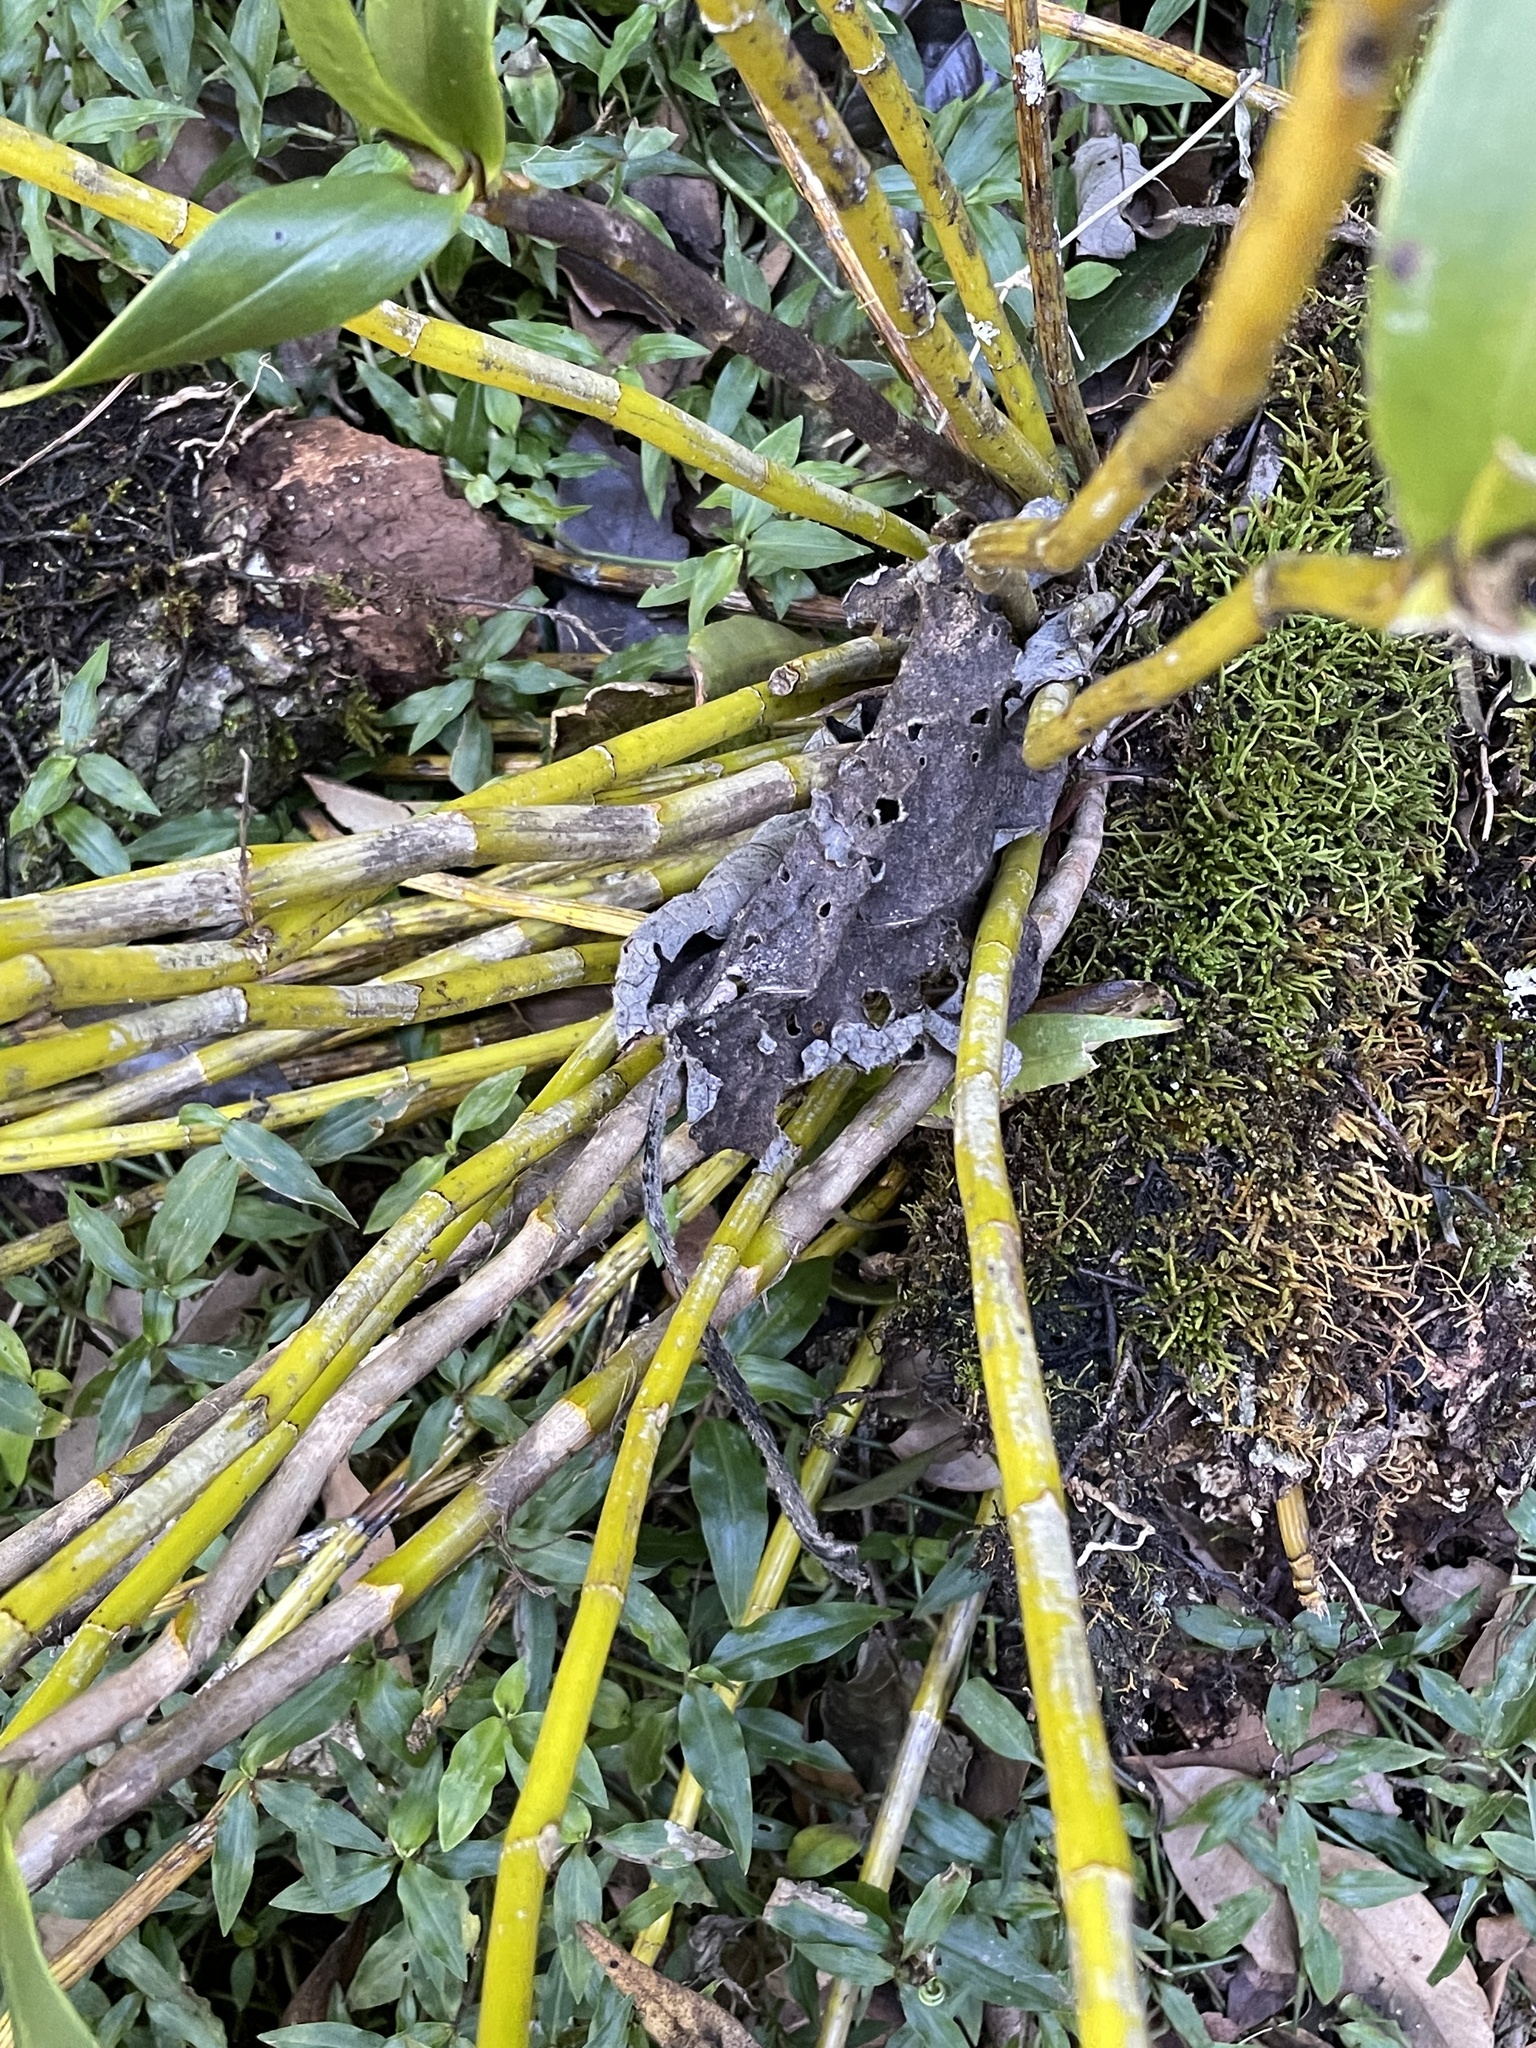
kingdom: Plantae
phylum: Tracheophyta
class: Liliopsida
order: Asparagales
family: Orchidaceae
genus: Dendrobium
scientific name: Dendrobium gracilicaule
